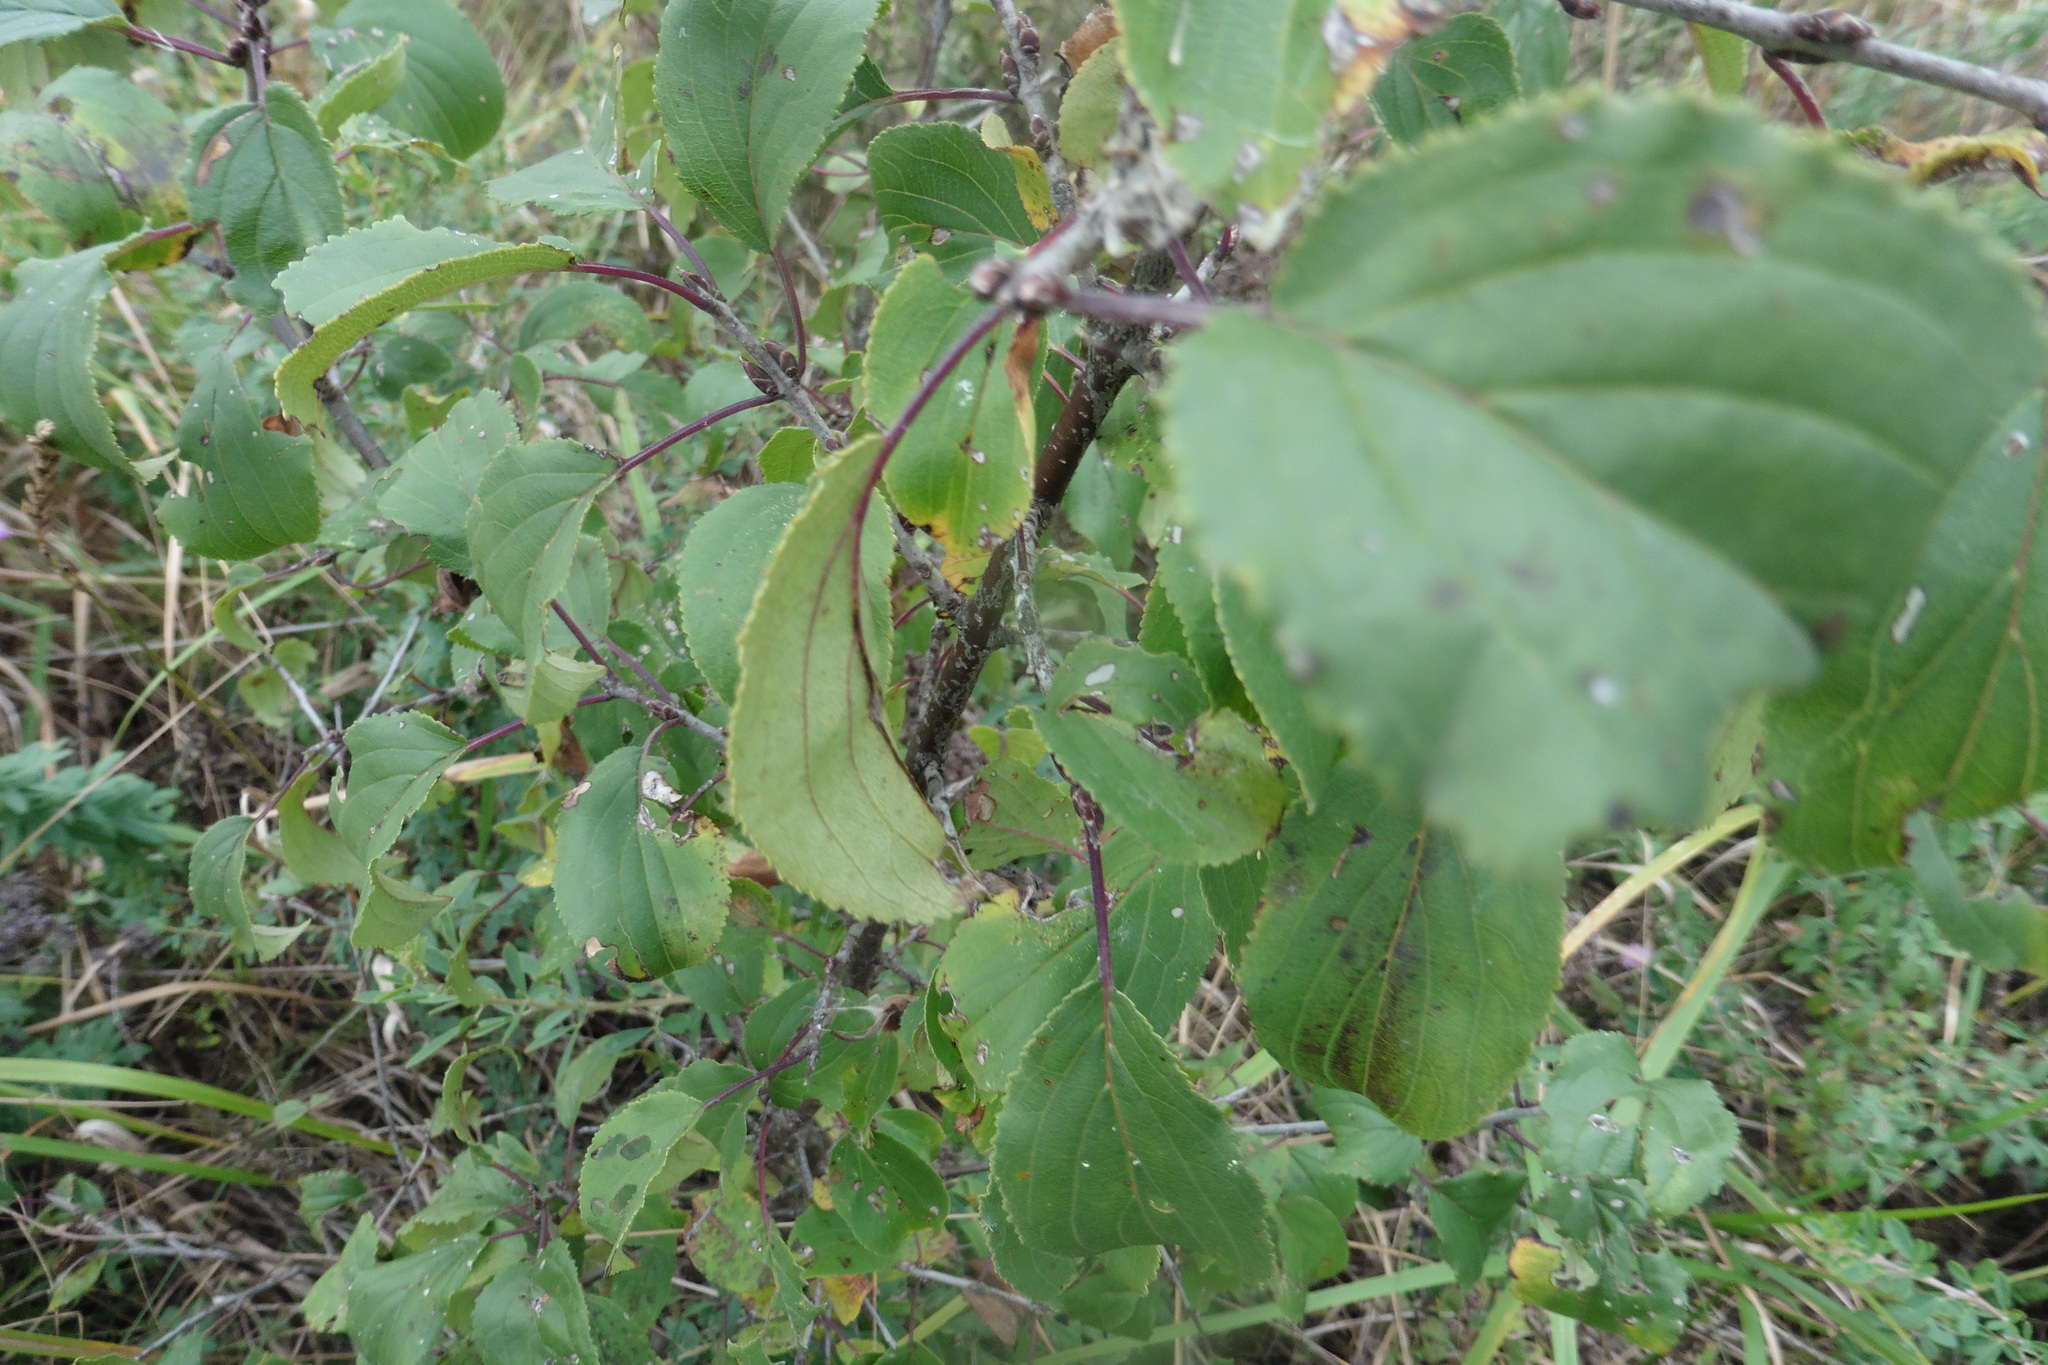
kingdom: Plantae
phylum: Tracheophyta
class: Magnoliopsida
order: Rosales
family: Rhamnaceae
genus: Rhamnus
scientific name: Rhamnus cathartica
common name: Common buckthorn
